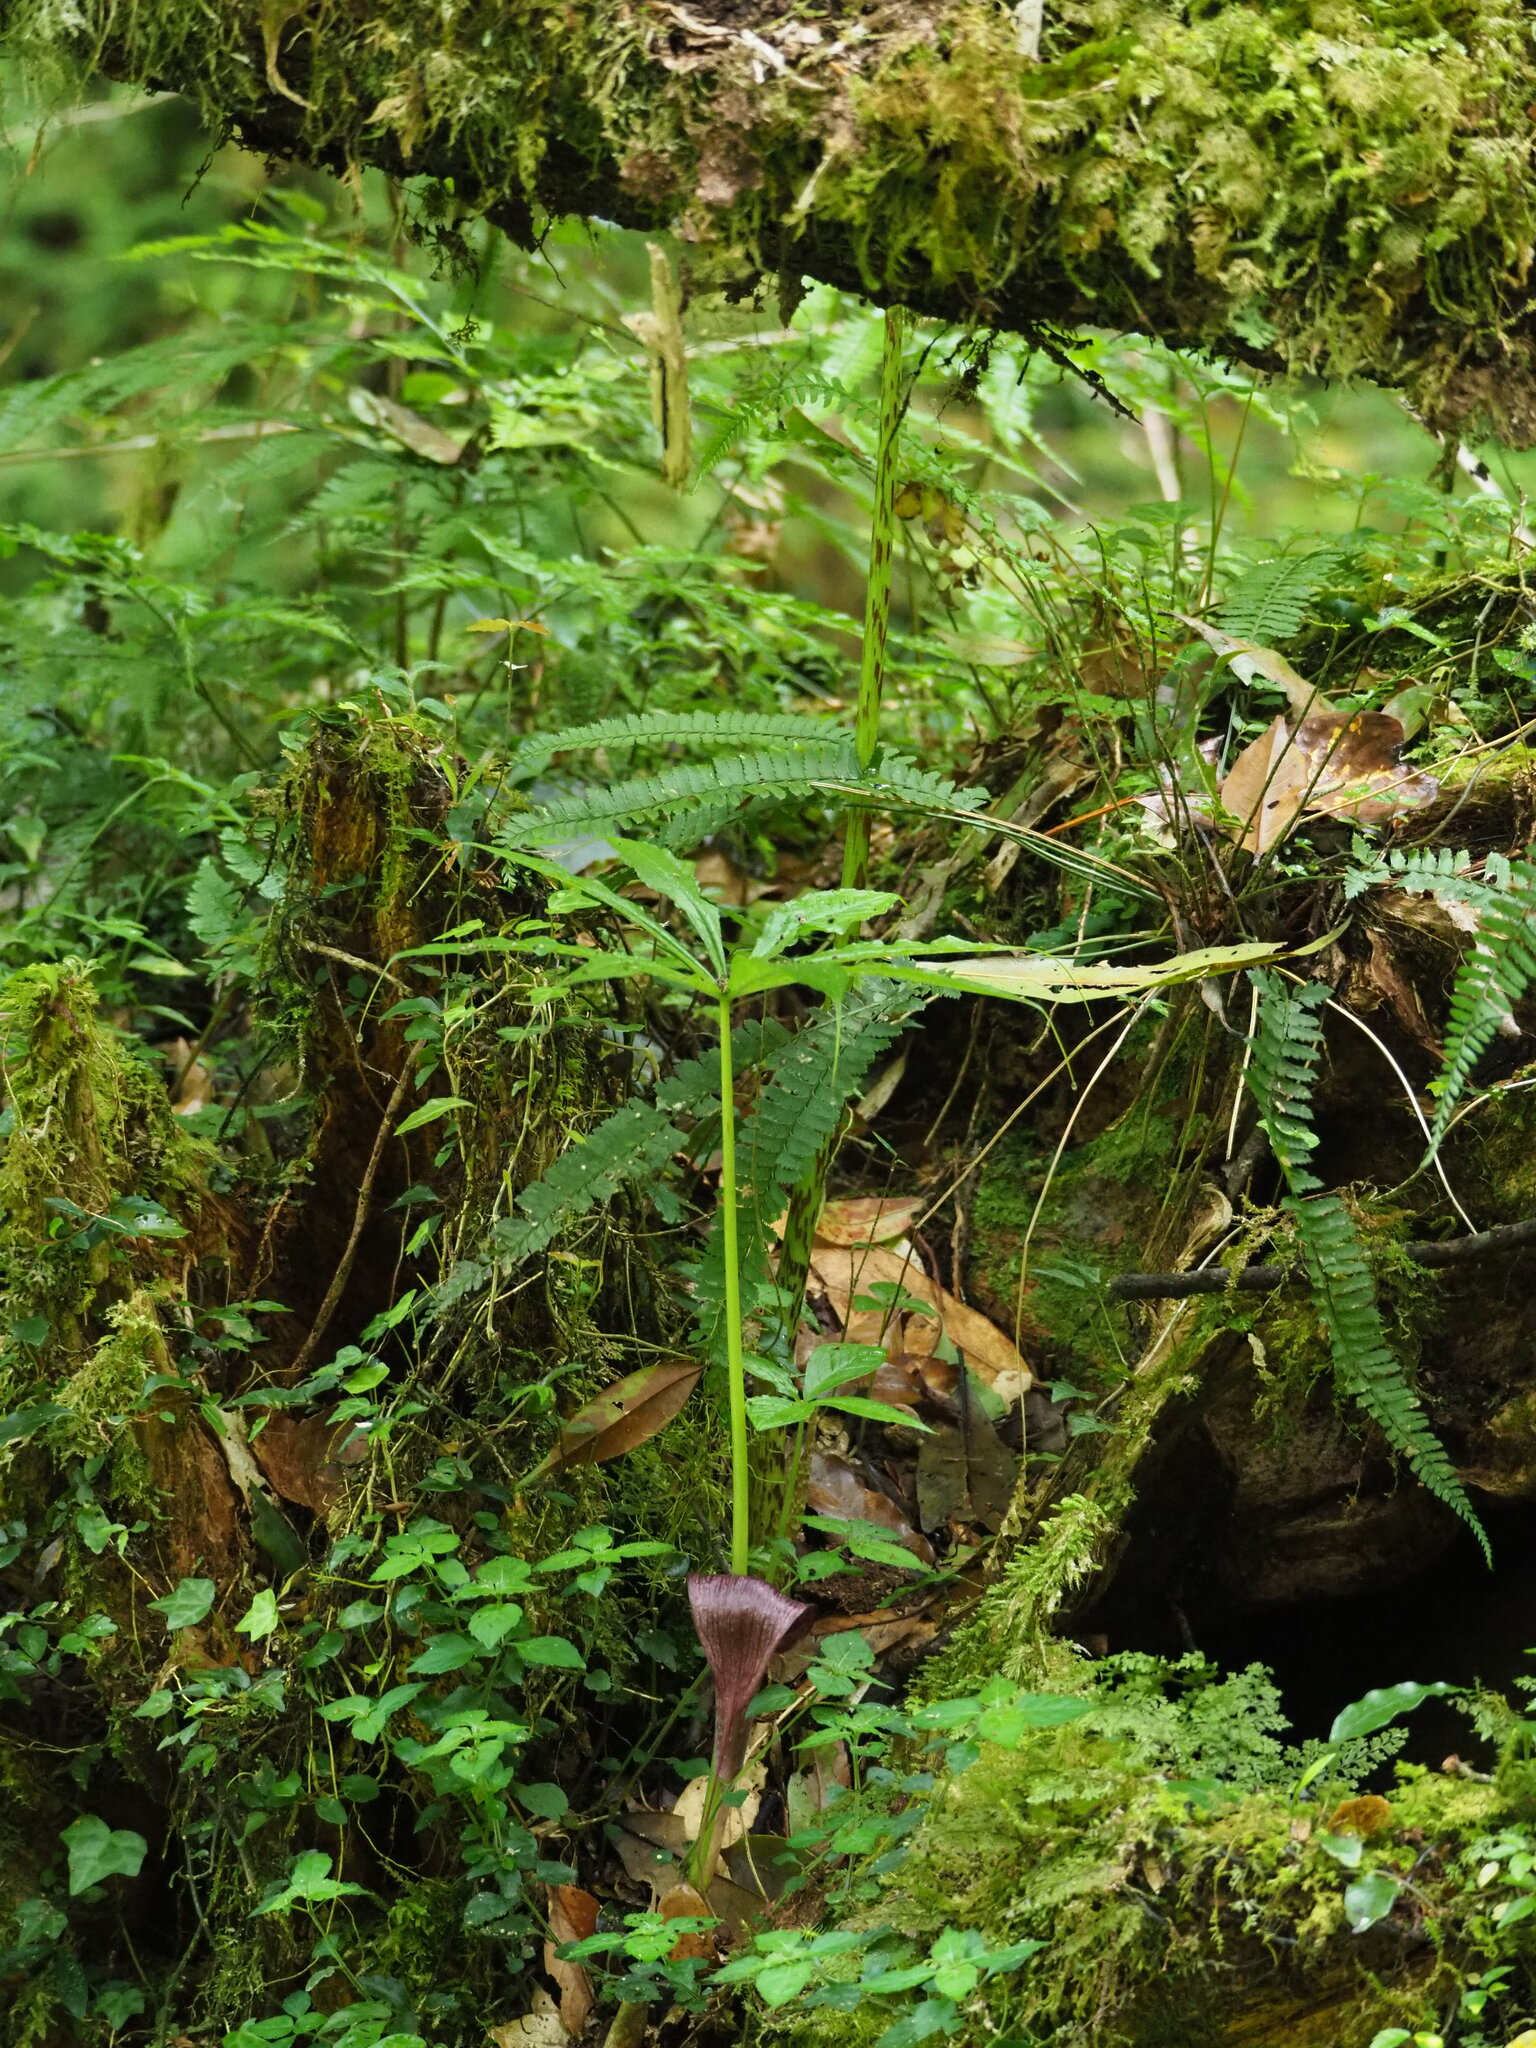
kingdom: Plantae
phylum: Tracheophyta
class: Liliopsida
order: Alismatales
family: Araceae
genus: Arisaema
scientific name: Arisaema taiwanense
